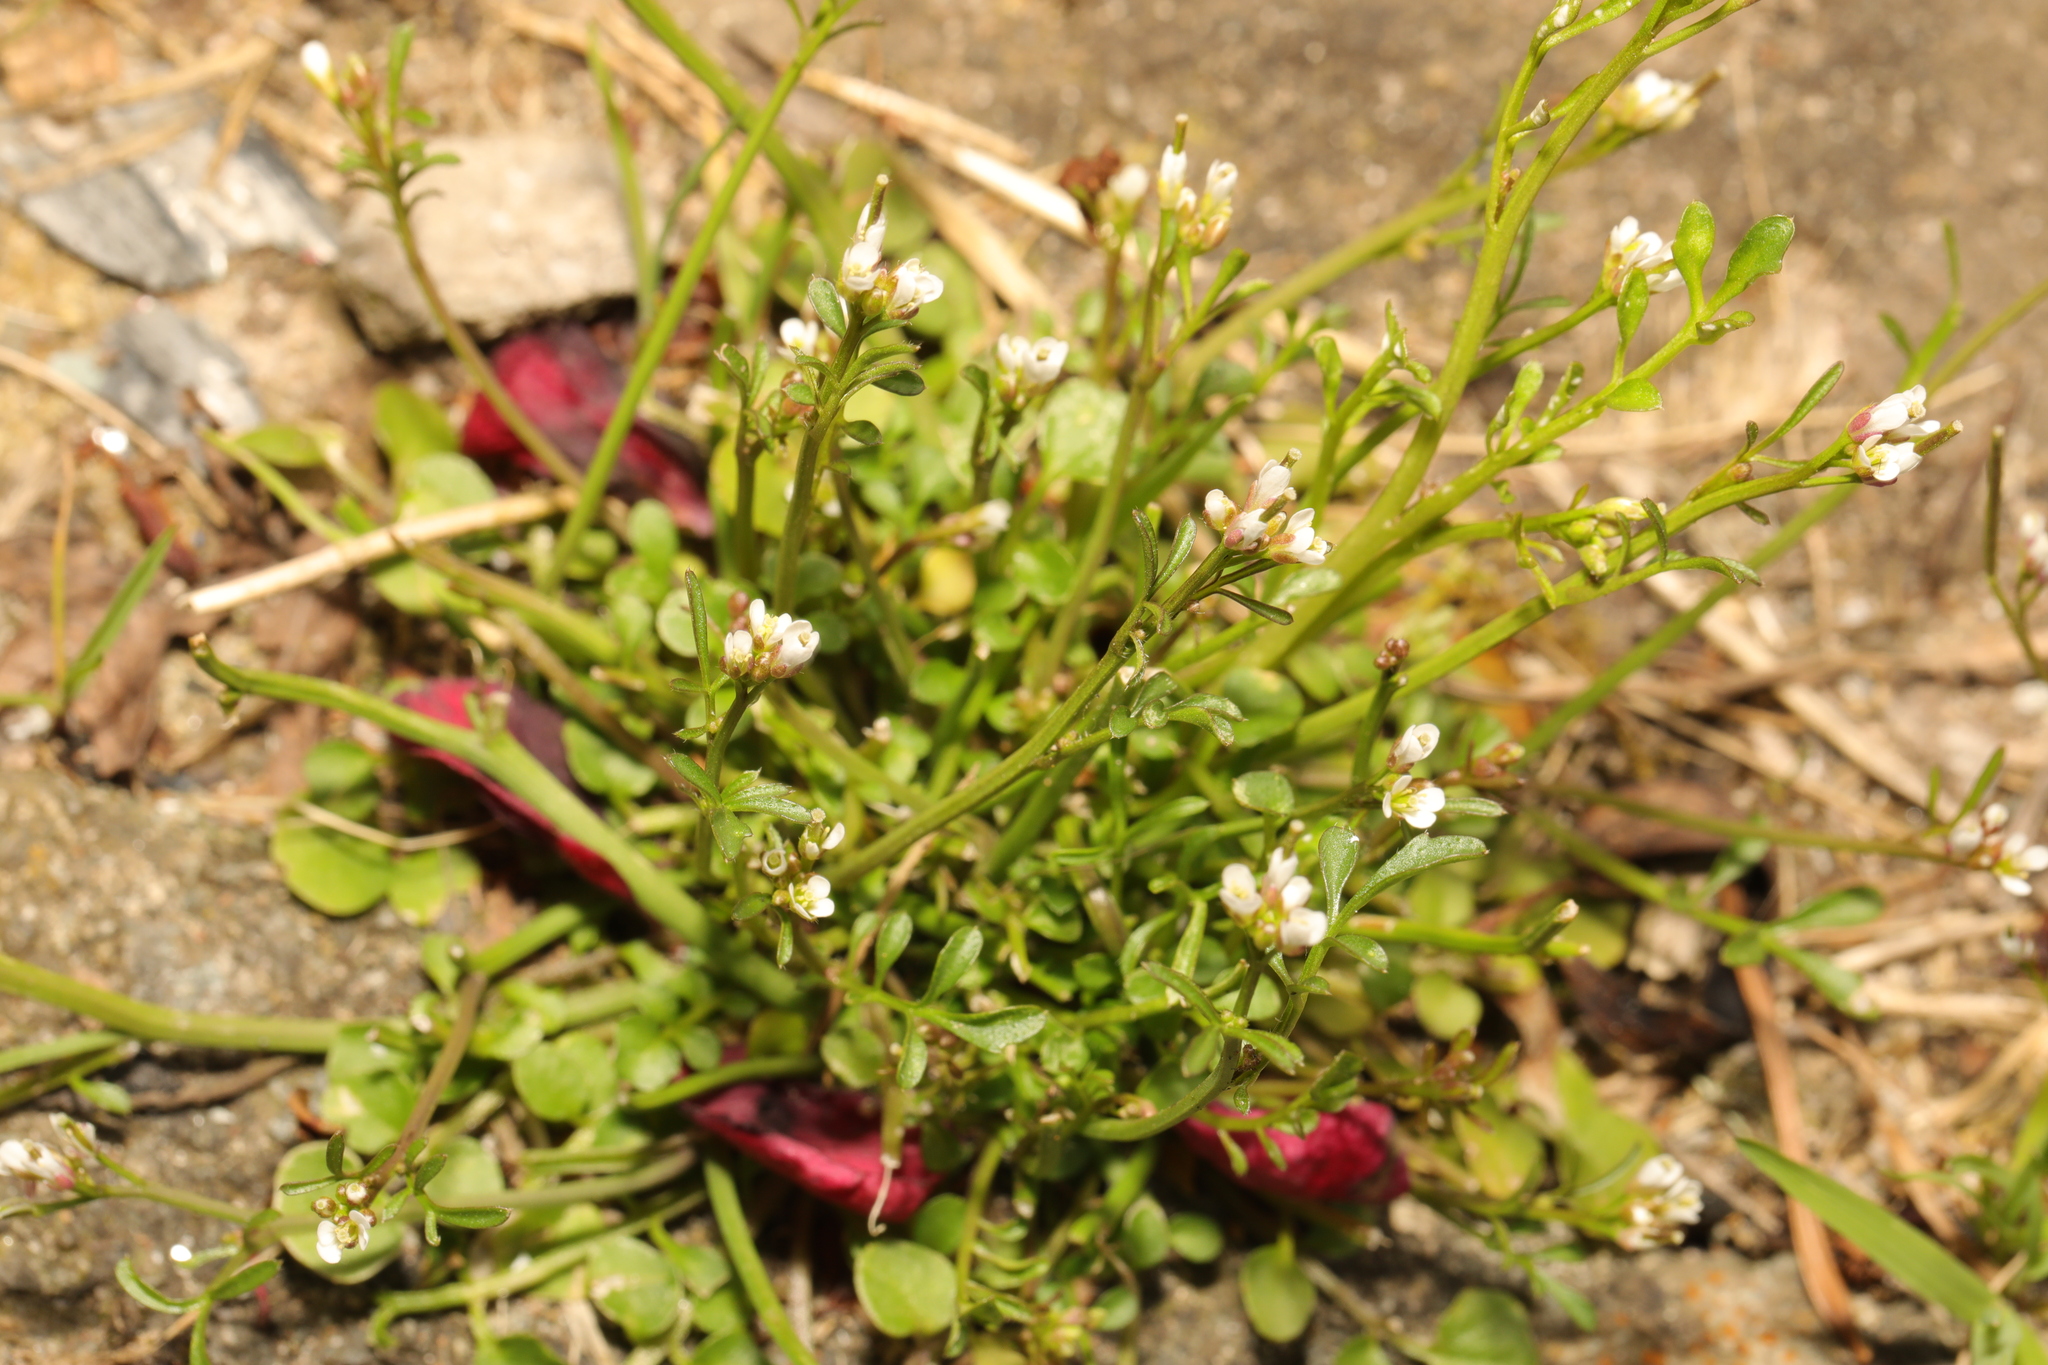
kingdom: Plantae
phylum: Tracheophyta
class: Magnoliopsida
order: Brassicales
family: Brassicaceae
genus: Cardamine
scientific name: Cardamine hirsuta
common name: Hairy bittercress
